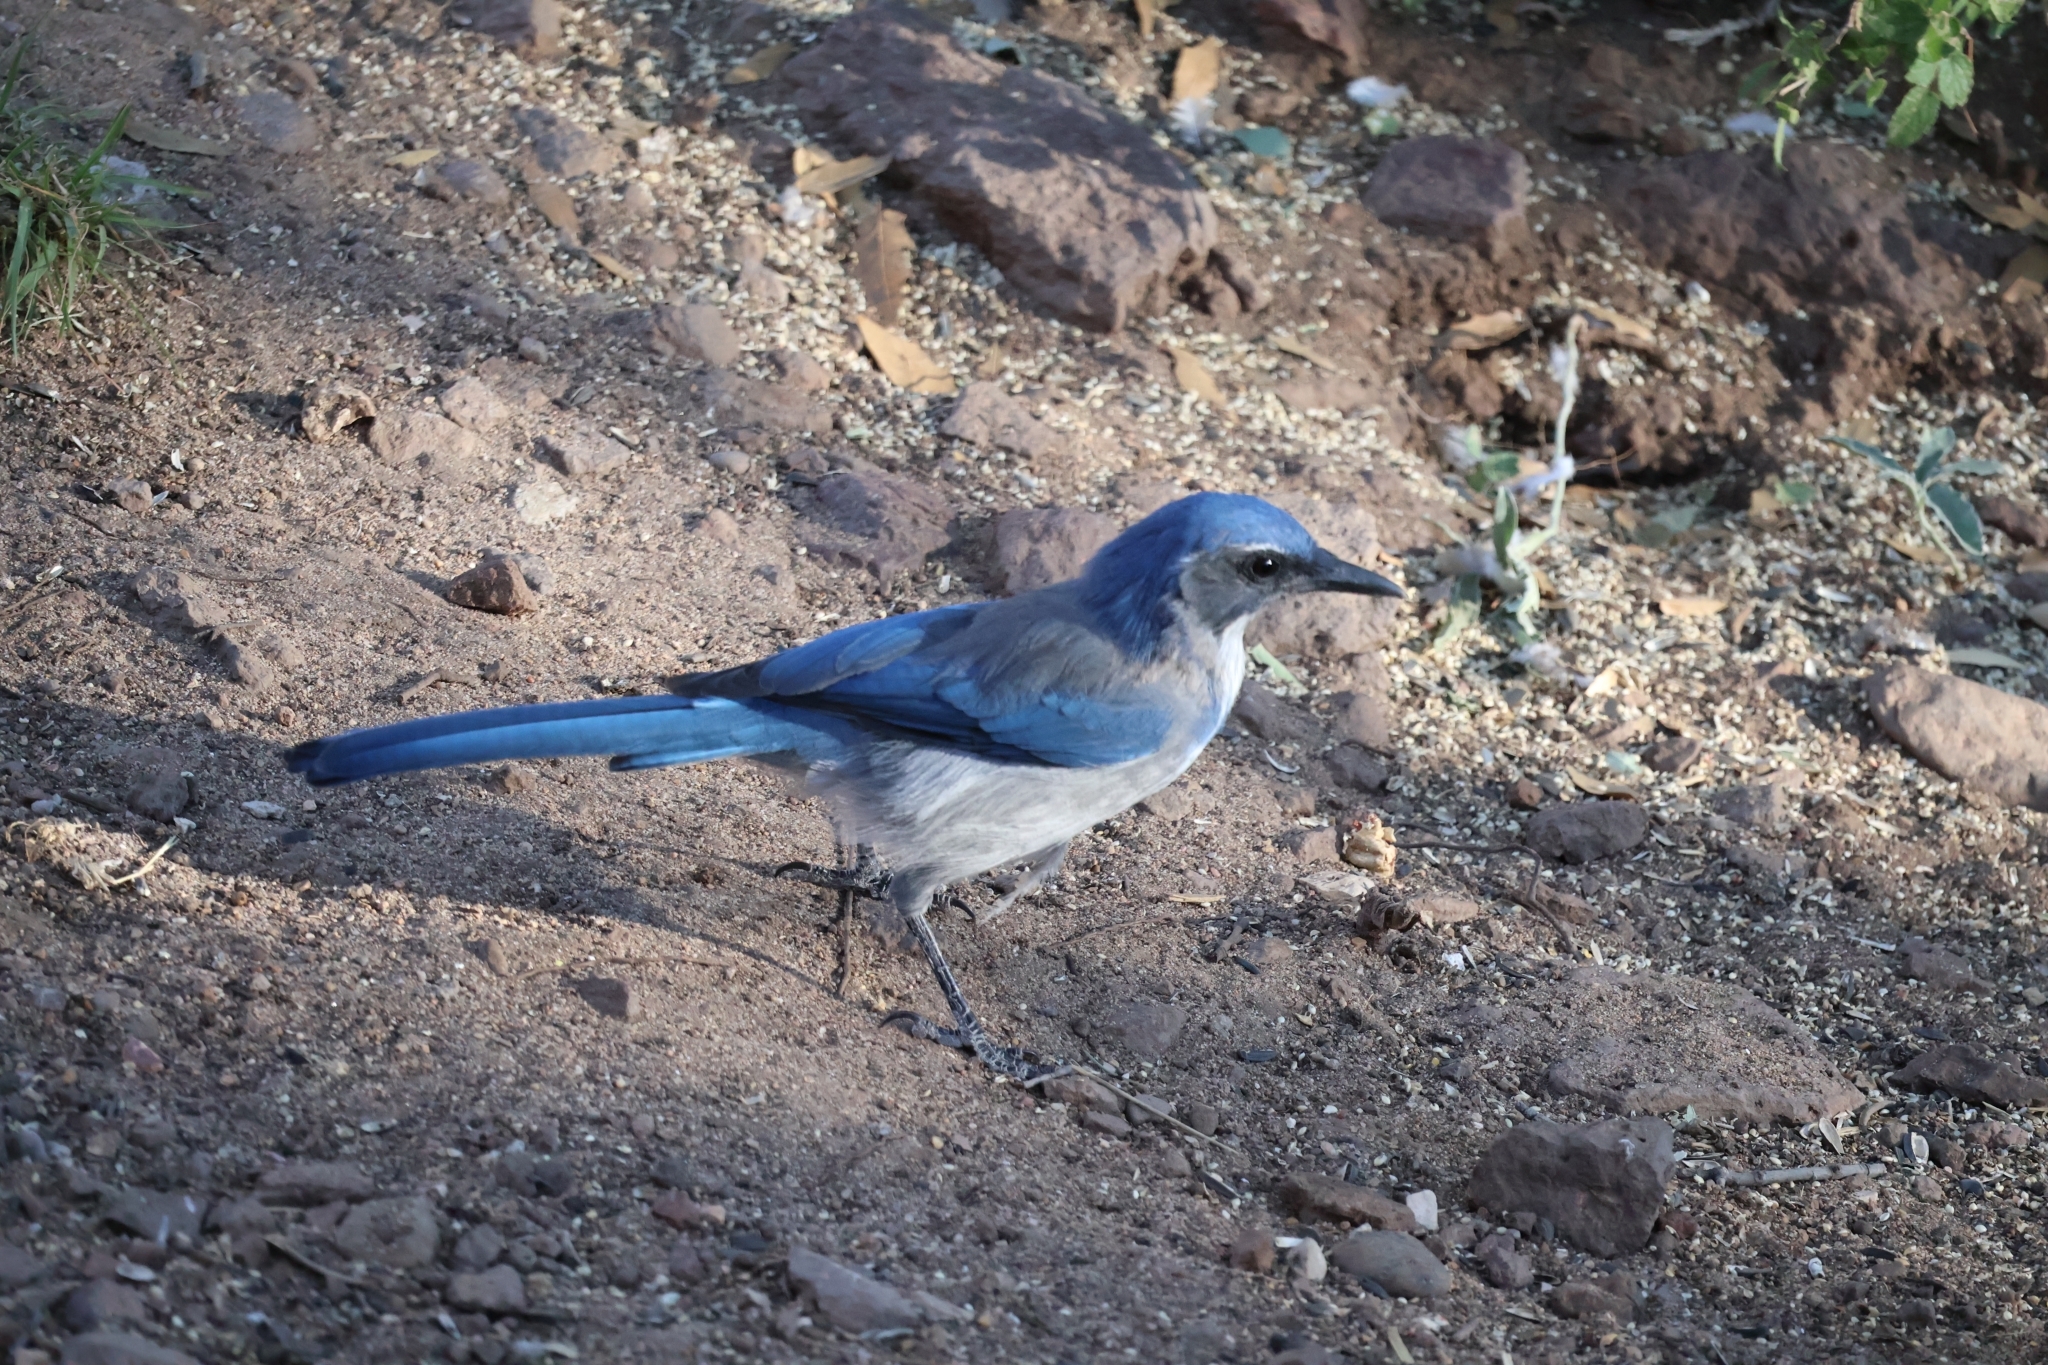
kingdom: Animalia
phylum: Chordata
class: Aves
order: Passeriformes
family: Corvidae
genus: Aphelocoma
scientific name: Aphelocoma woodhouseii
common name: Woodhouse's scrub-jay
